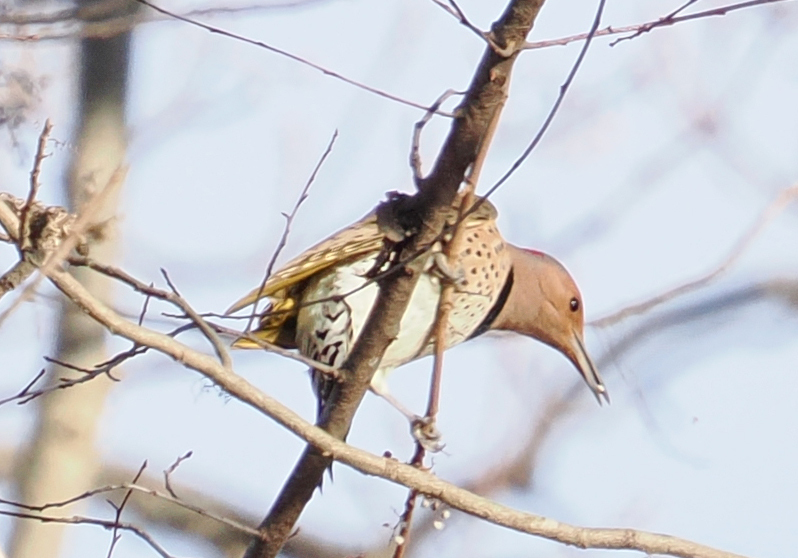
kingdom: Animalia
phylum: Chordata
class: Aves
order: Piciformes
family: Picidae
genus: Colaptes
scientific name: Colaptes auratus
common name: Northern flicker
